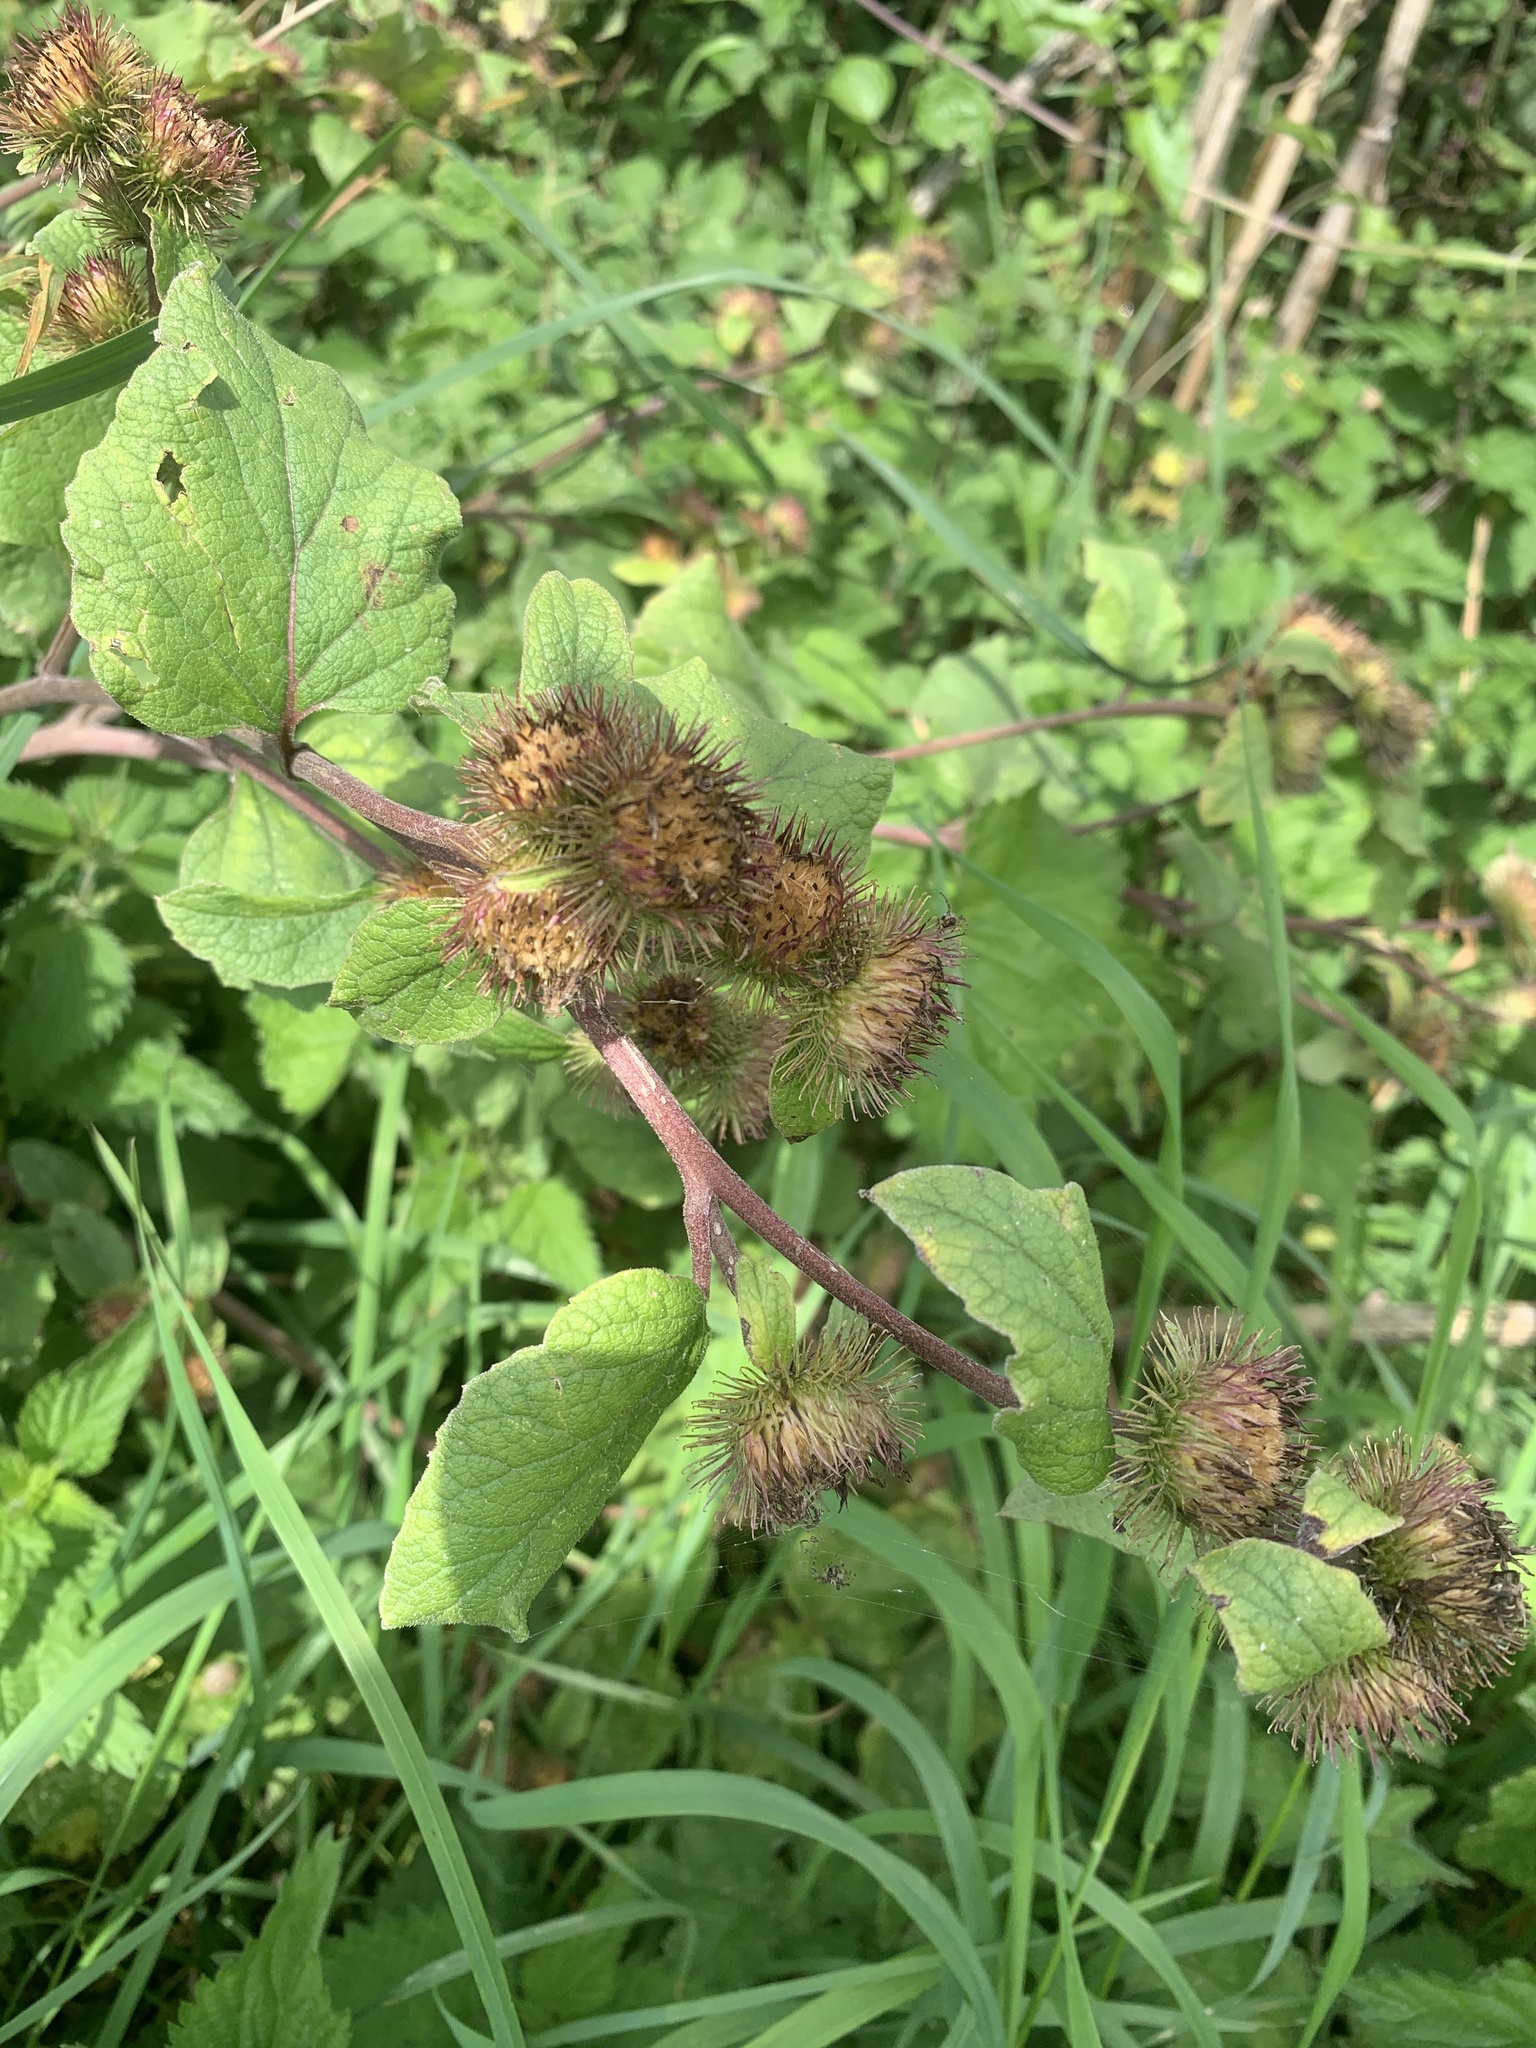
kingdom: Plantae
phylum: Tracheophyta
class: Magnoliopsida
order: Asterales
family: Asteraceae
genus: Arctium
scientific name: Arctium minus
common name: Lesser burdock
